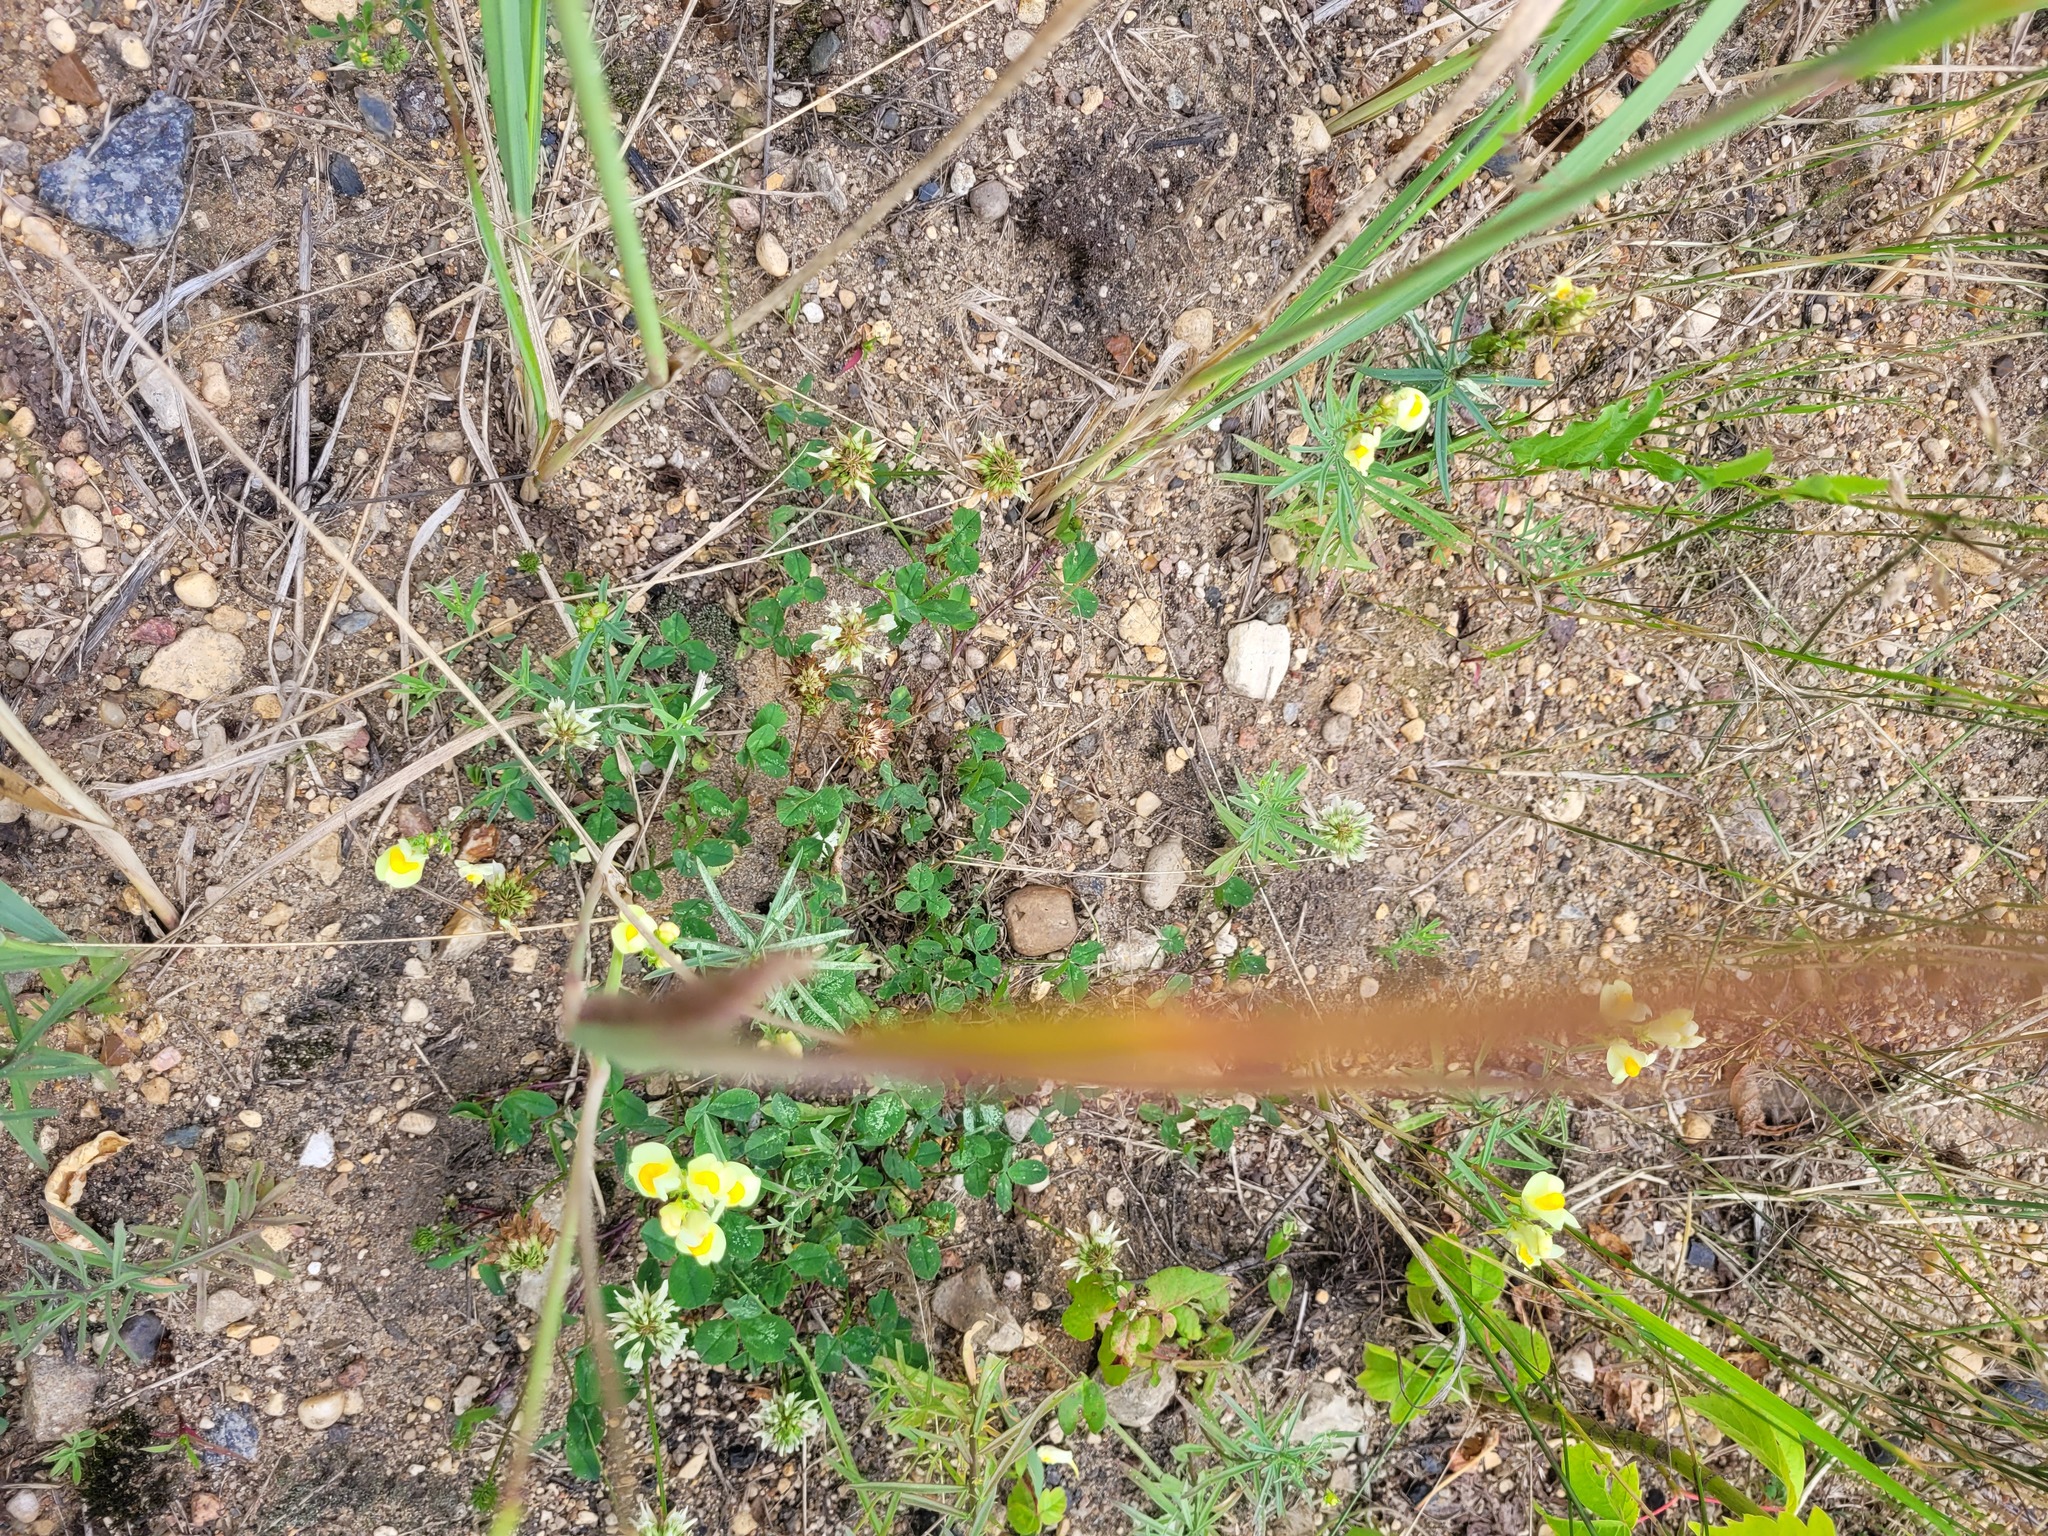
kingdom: Plantae
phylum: Tracheophyta
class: Magnoliopsida
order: Fabales
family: Fabaceae
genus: Trifolium
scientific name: Trifolium repens
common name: White clover
